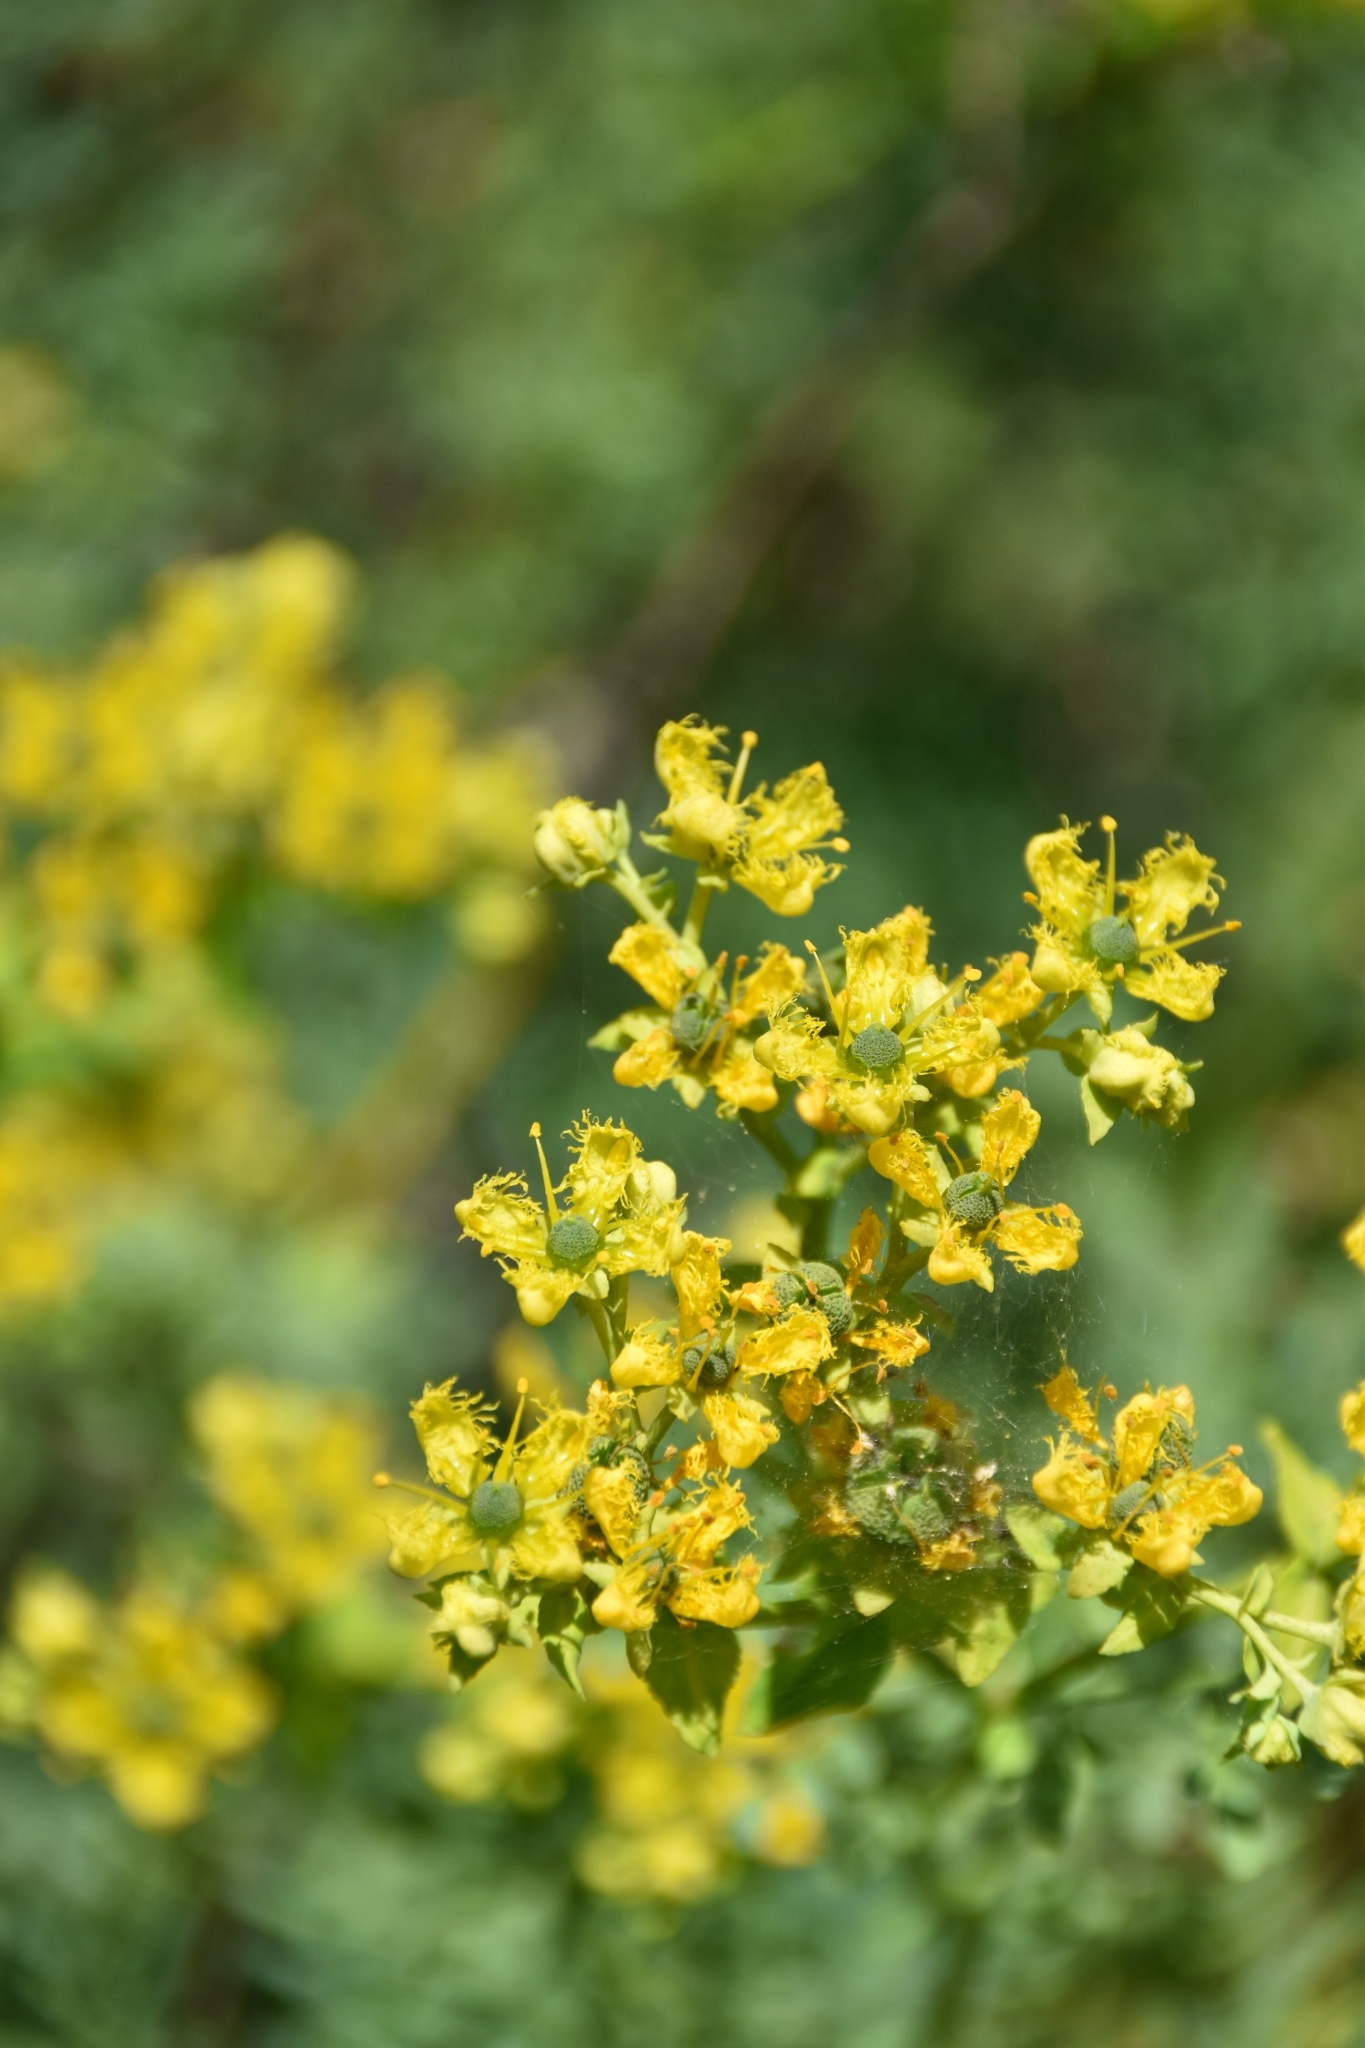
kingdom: Plantae
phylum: Tracheophyta
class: Magnoliopsida
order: Sapindales
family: Rutaceae
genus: Ruta
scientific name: Ruta chalepensis
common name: Fringed rue
